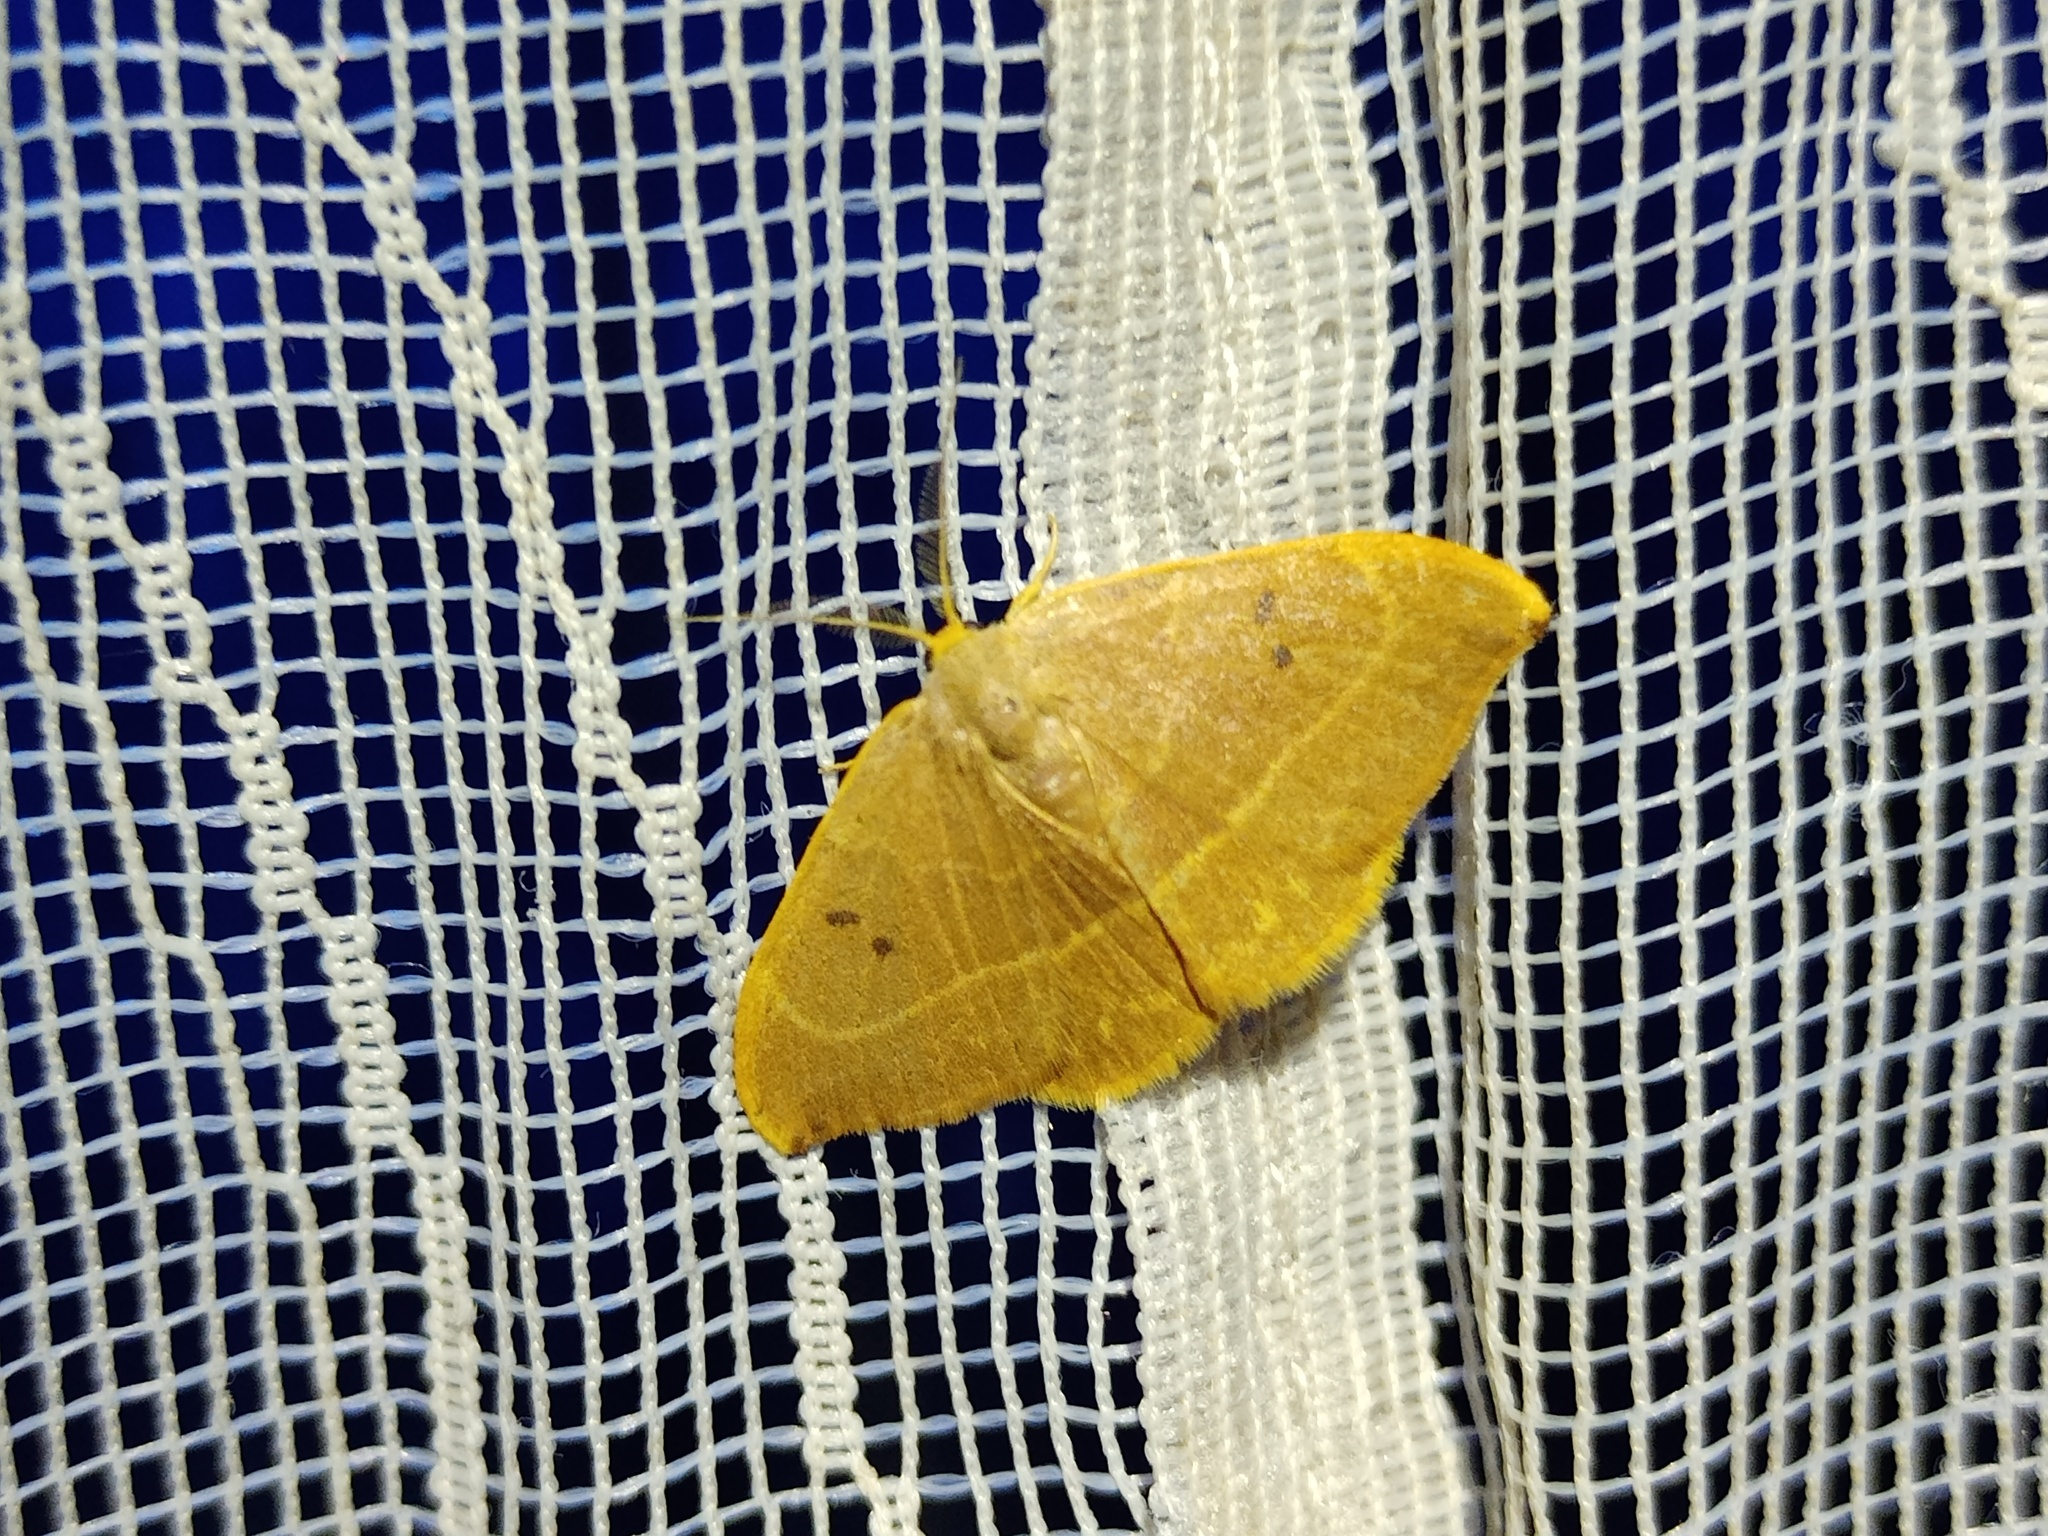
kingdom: Animalia
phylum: Arthropoda
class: Insecta
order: Lepidoptera
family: Drepanidae
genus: Watsonalla
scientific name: Watsonalla binaria
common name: Oak hook-tip
